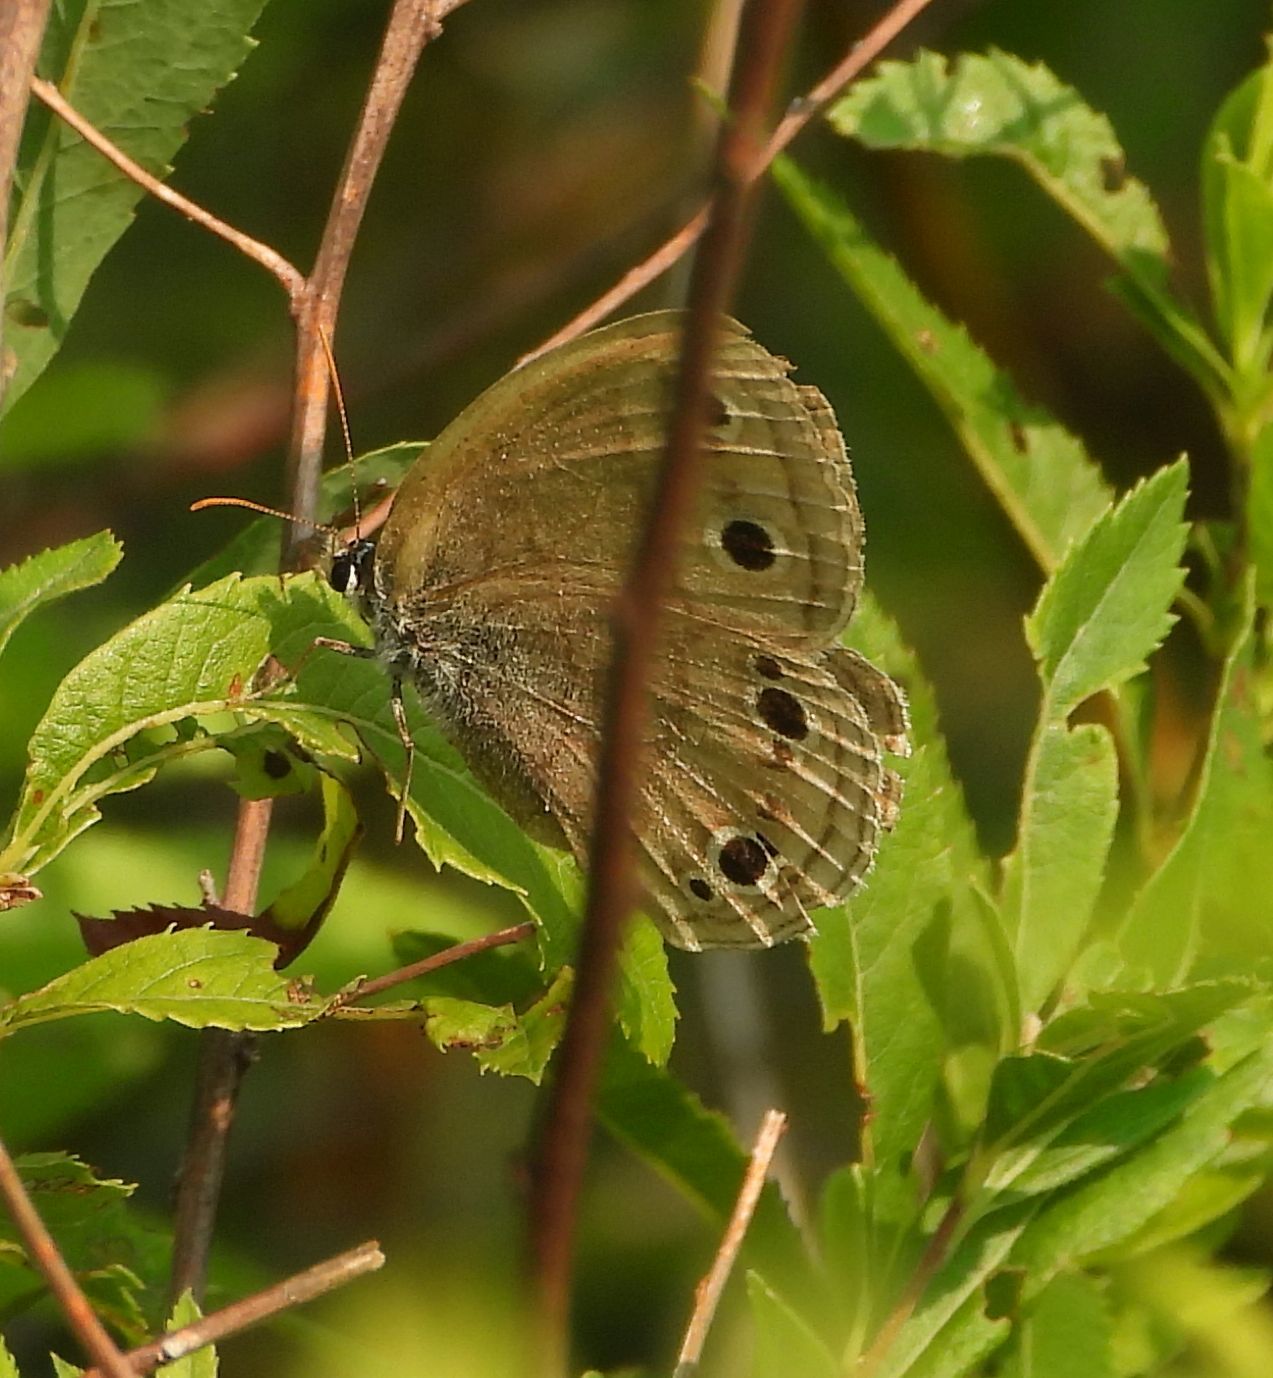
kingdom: Animalia
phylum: Arthropoda
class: Insecta
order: Lepidoptera
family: Nymphalidae
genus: Euptychia
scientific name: Euptychia cymela
